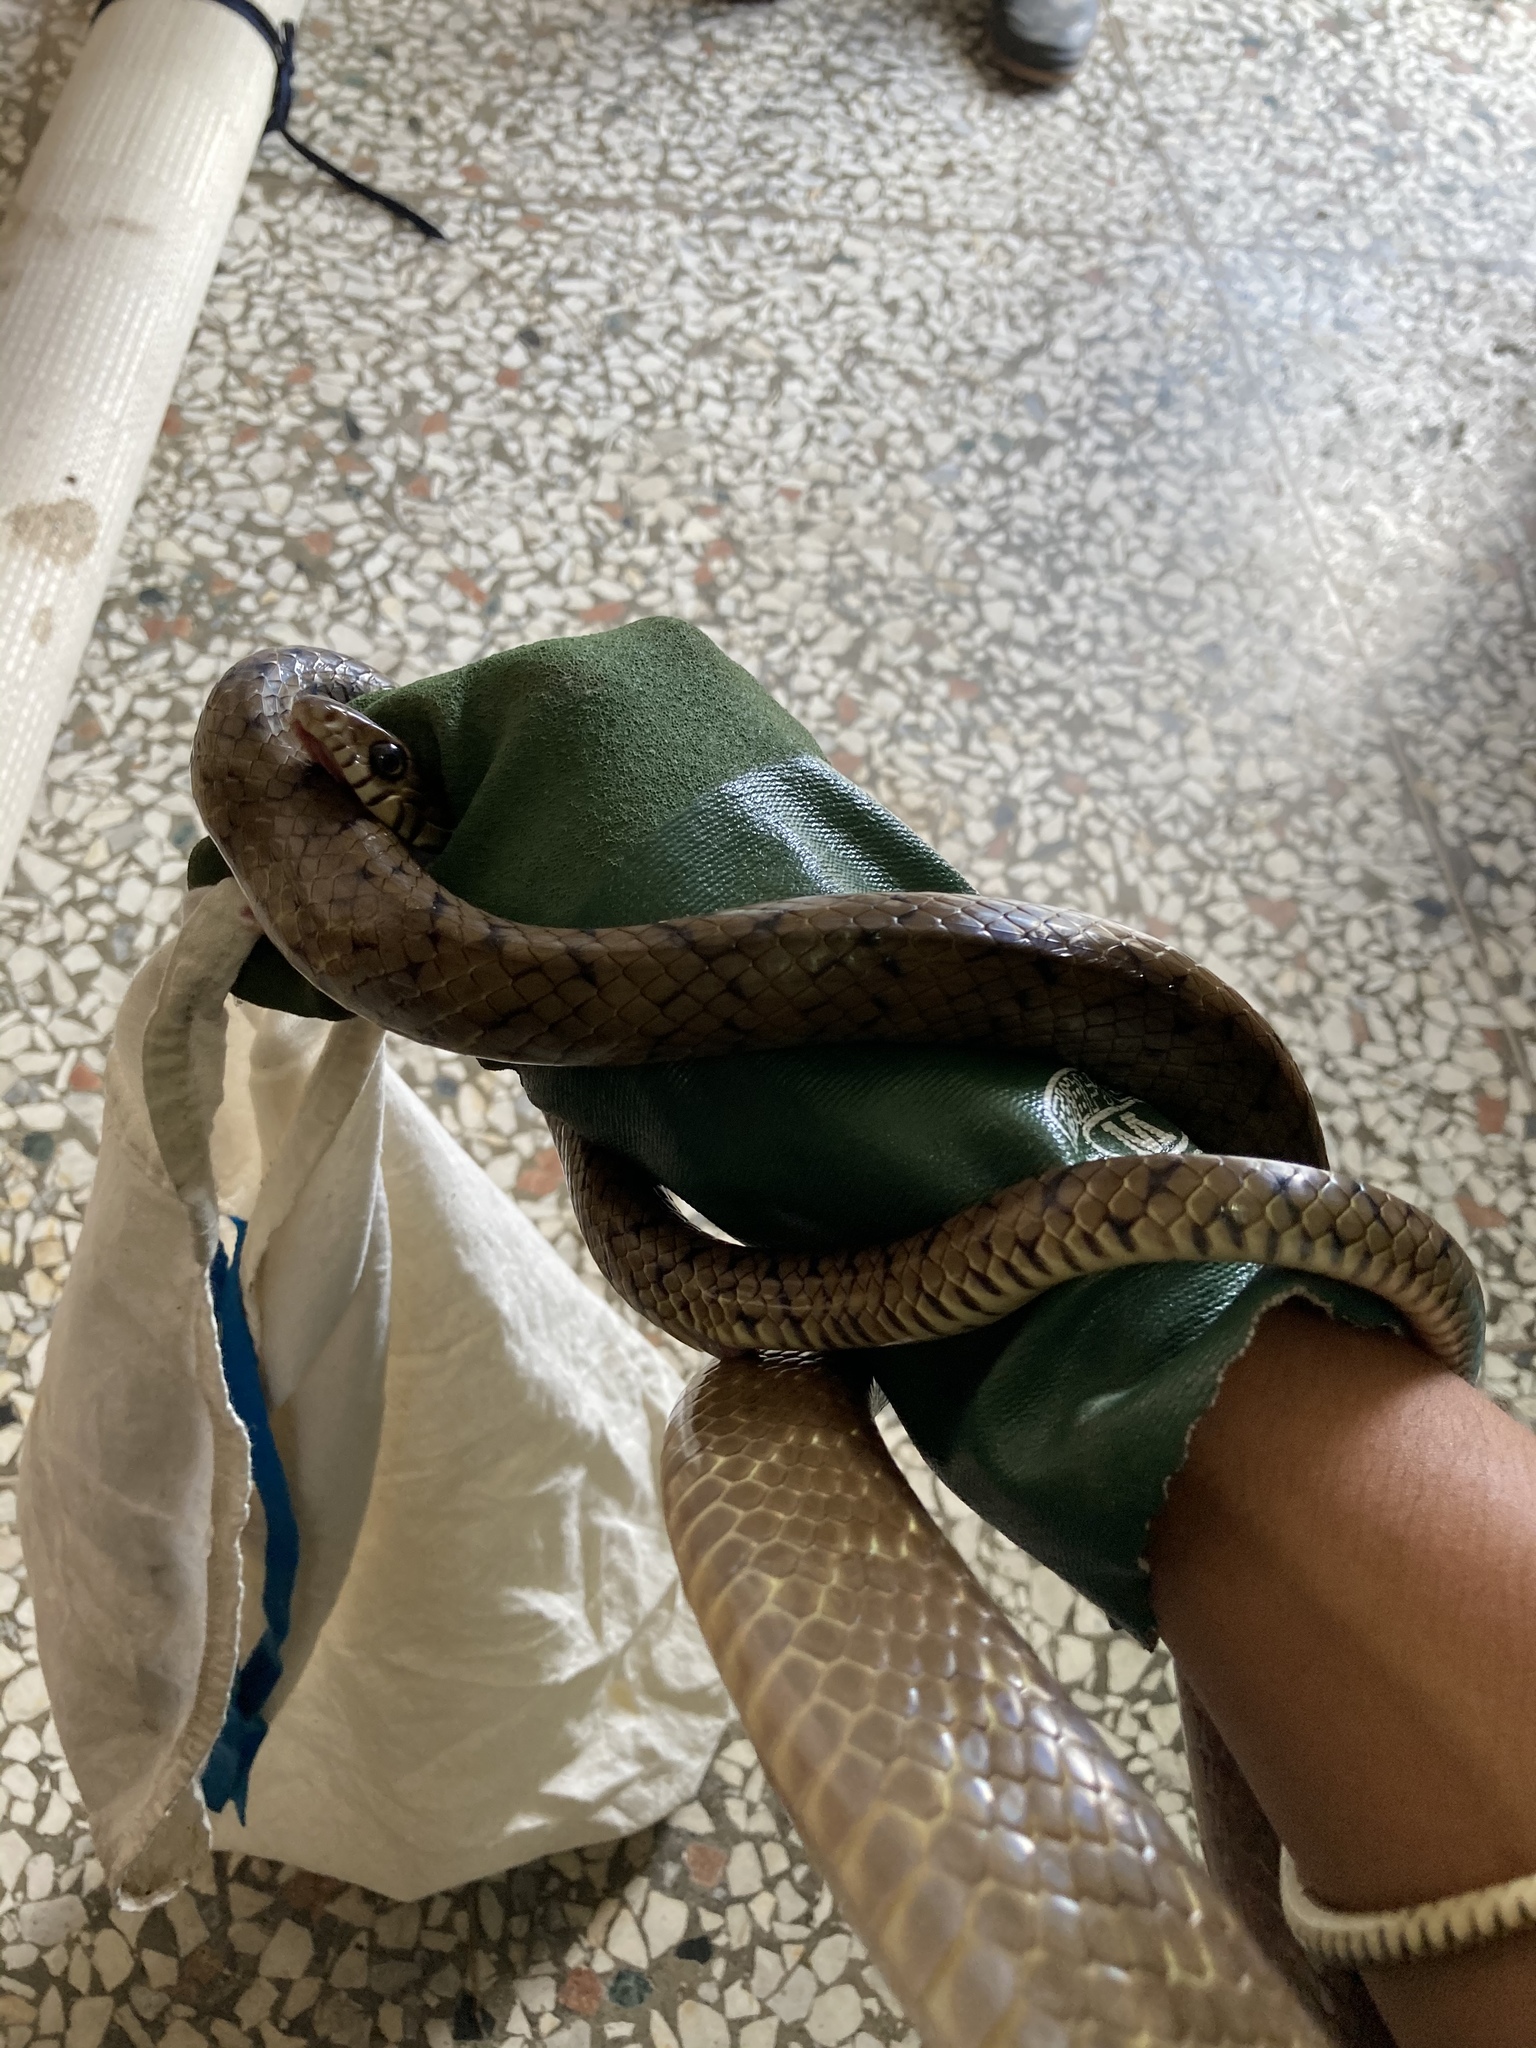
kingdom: Animalia
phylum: Chordata
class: Squamata
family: Colubridae
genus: Ptyas
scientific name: Ptyas mucosa
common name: Oriental ratsnake
